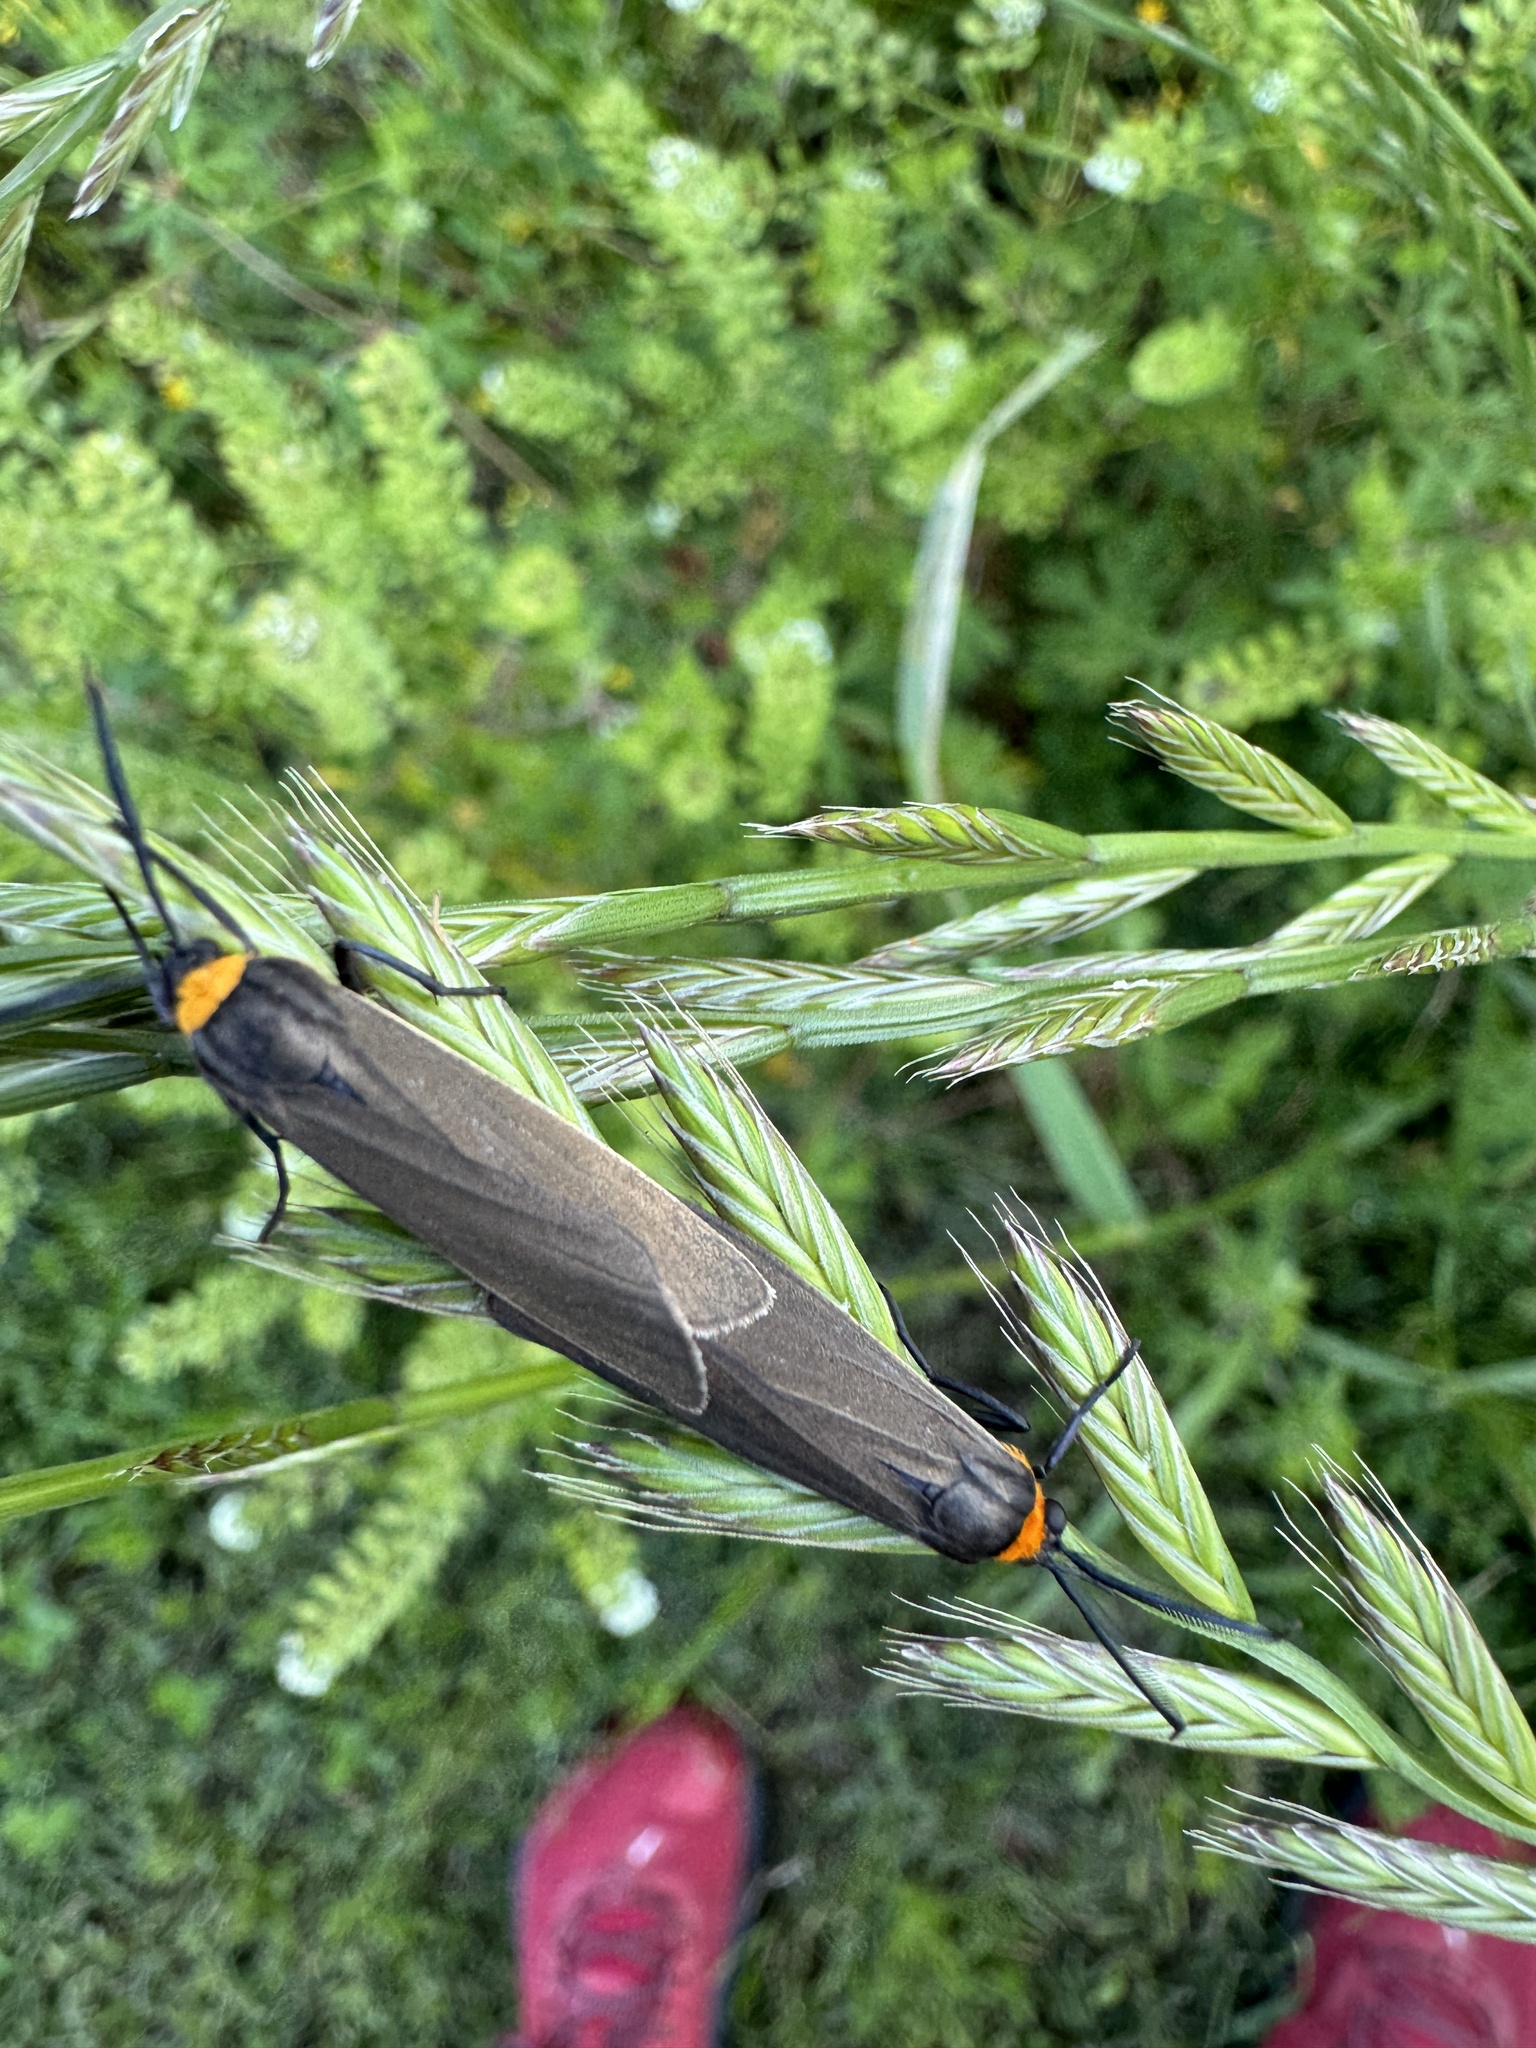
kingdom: Animalia
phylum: Arthropoda
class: Insecta
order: Lepidoptera
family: Erebidae
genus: Cisseps
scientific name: Cisseps fulvicollis
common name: Yellow-collared scape moth
